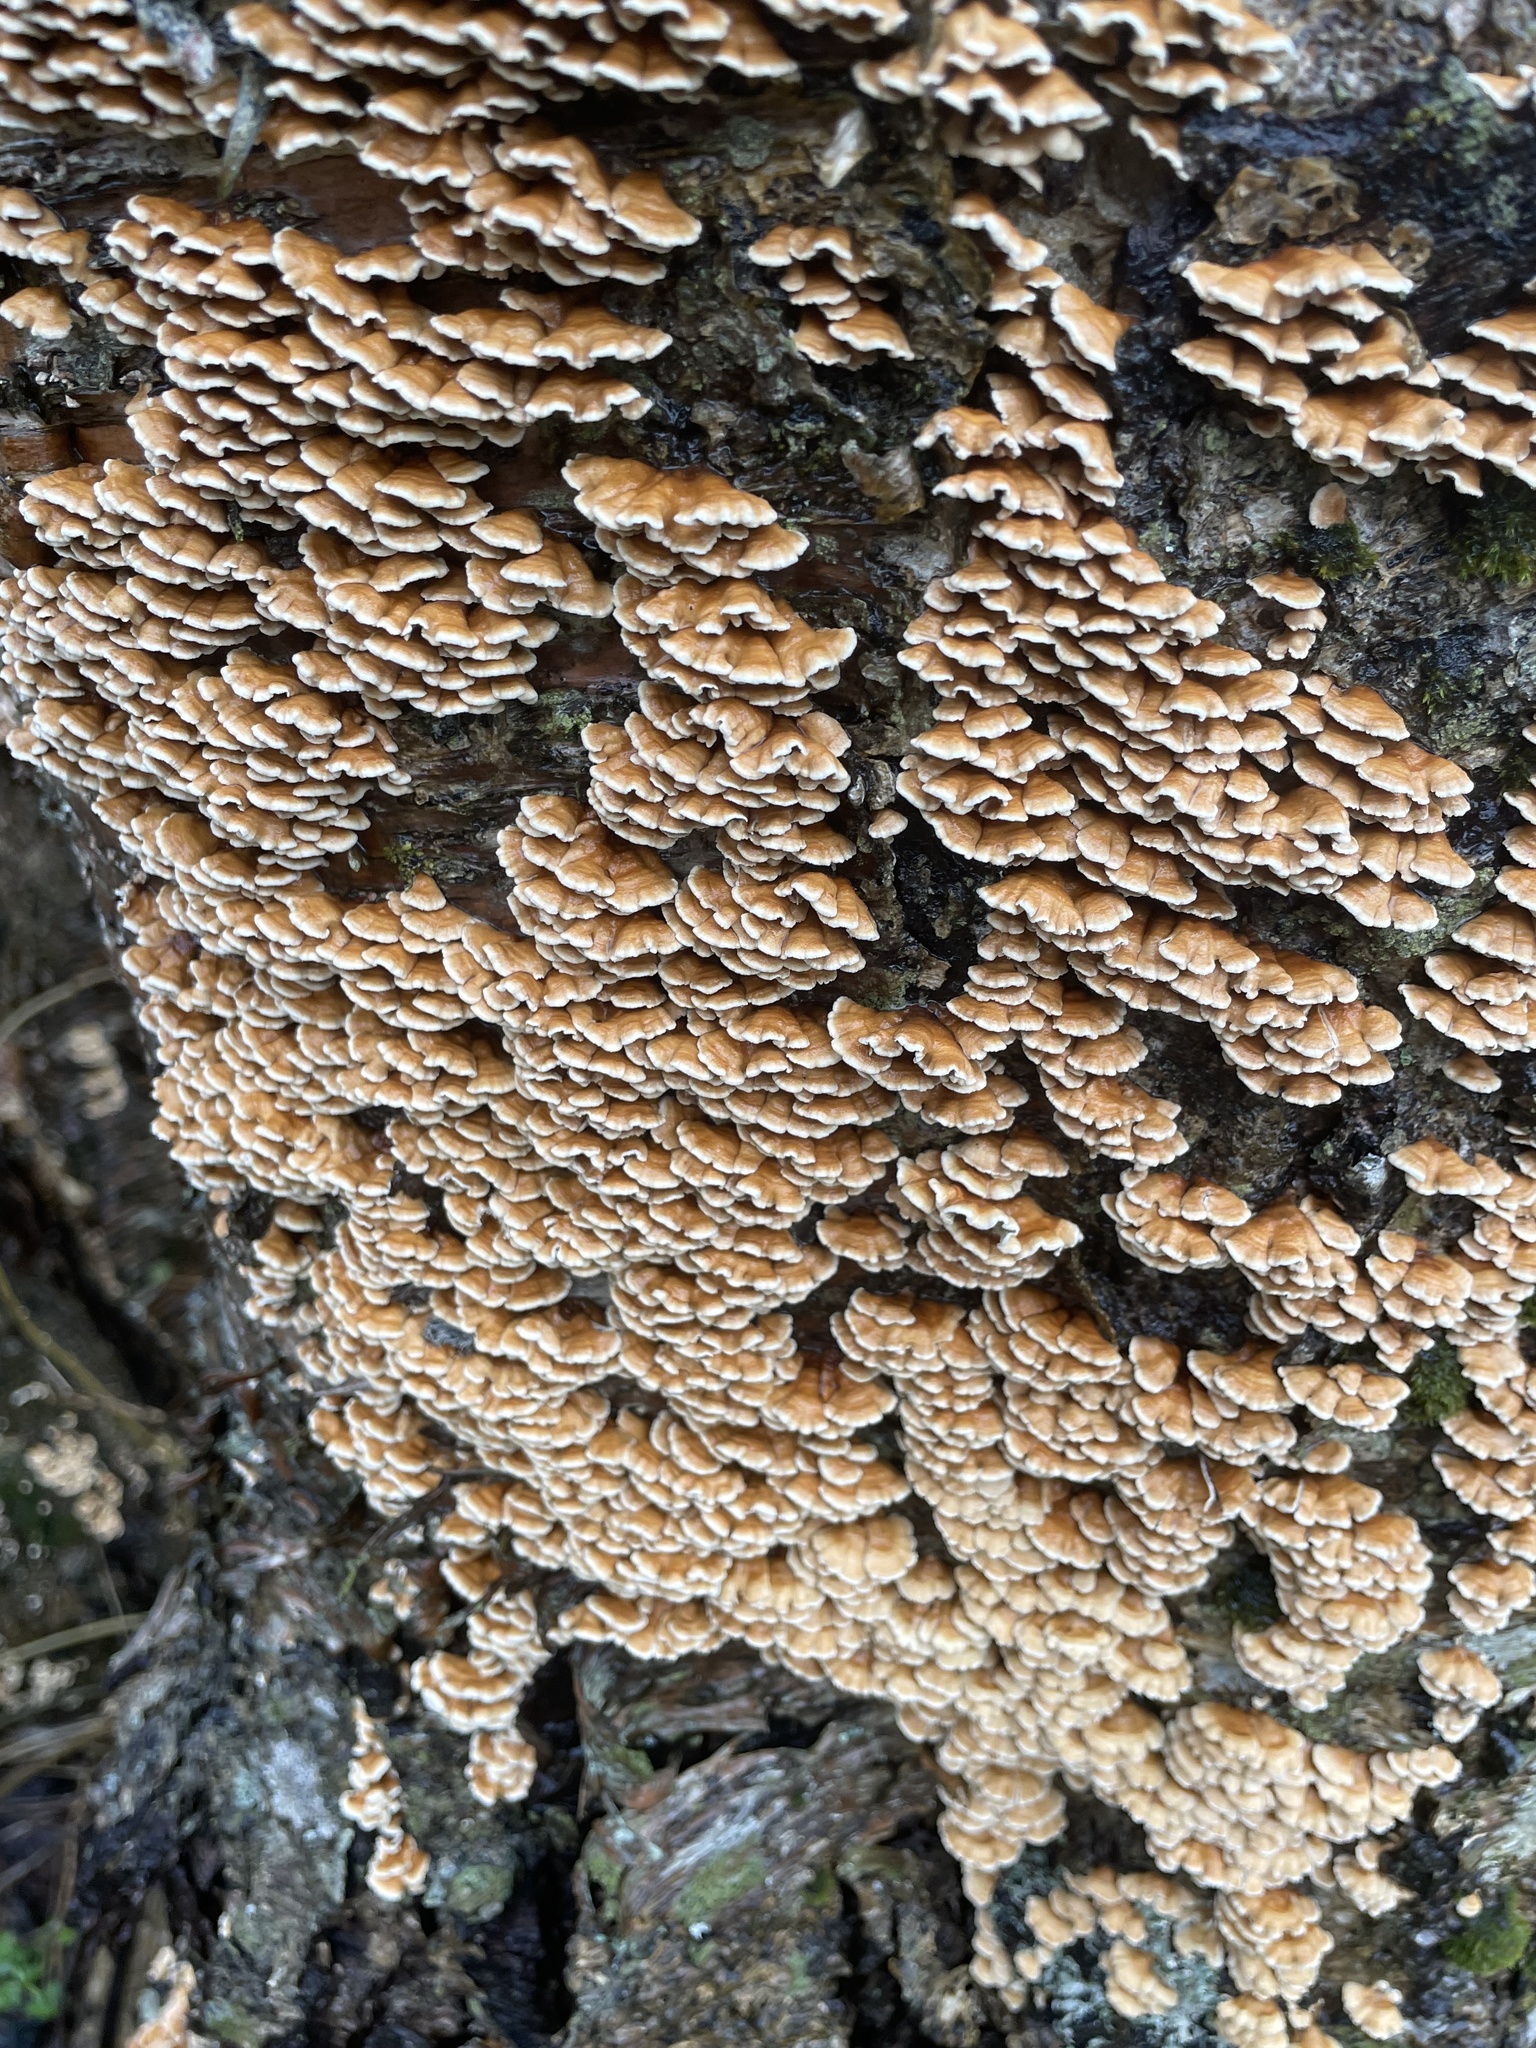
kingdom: Fungi
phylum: Basidiomycota
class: Agaricomycetes
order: Amylocorticiales
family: Amylocorticiaceae
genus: Plicaturopsis
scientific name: Plicaturopsis crispa
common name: Crimped gill
